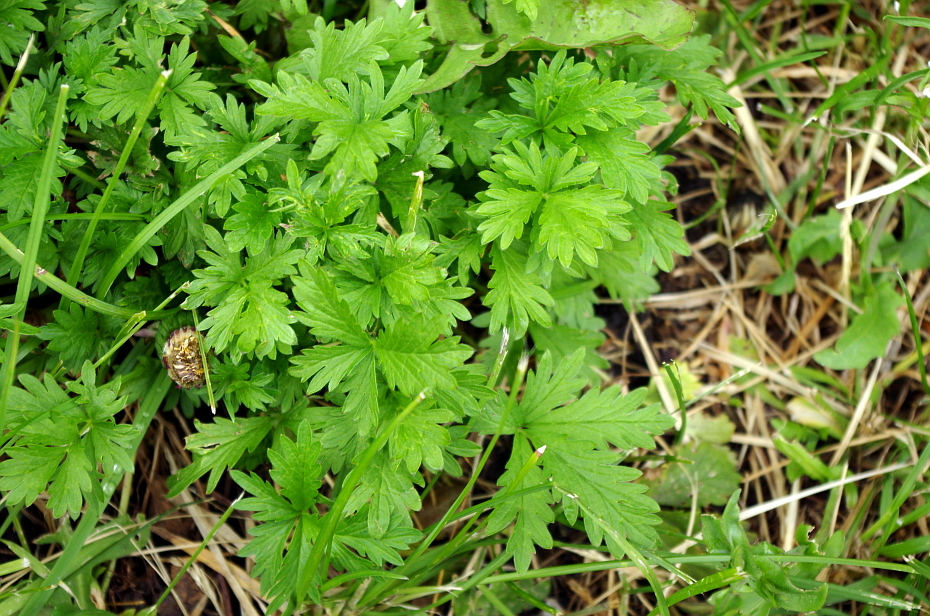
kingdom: Plantae
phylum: Tracheophyta
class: Magnoliopsida
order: Rosales
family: Rosaceae
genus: Potentilla
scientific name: Potentilla intermedia
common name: Downy cinquefoil
